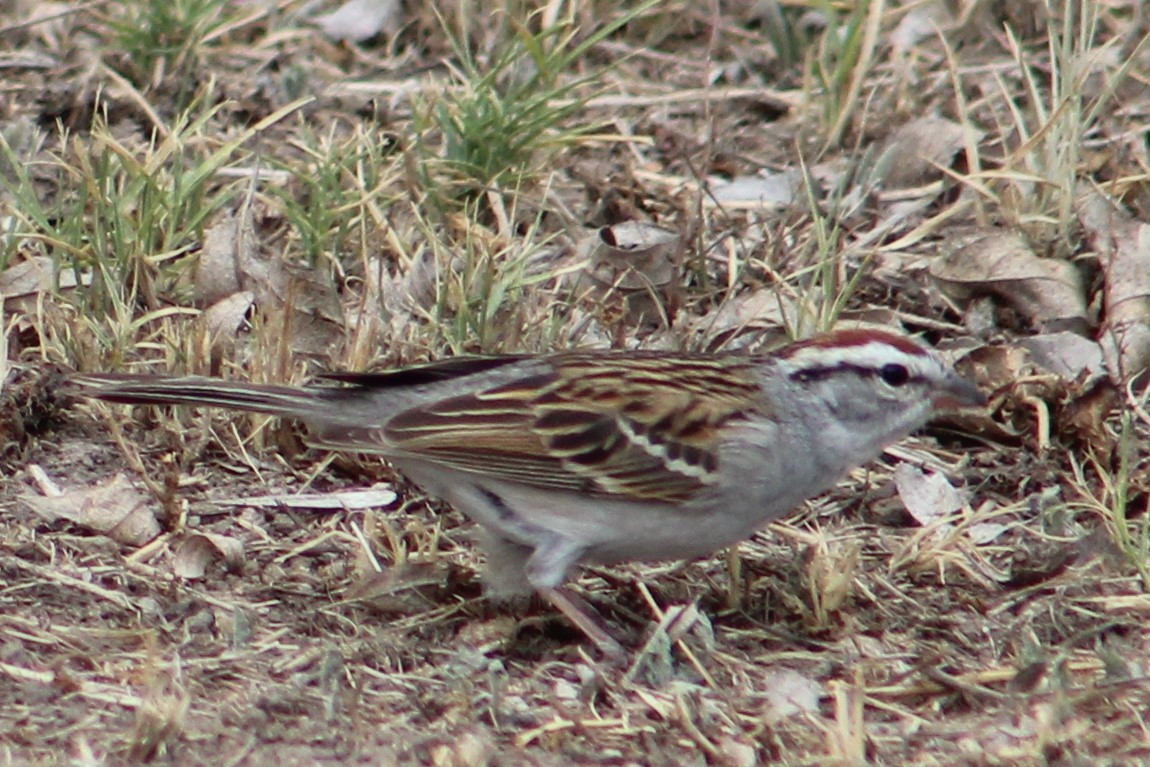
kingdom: Animalia
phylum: Chordata
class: Aves
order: Passeriformes
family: Passerellidae
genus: Spizella
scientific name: Spizella passerina
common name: Chipping sparrow
